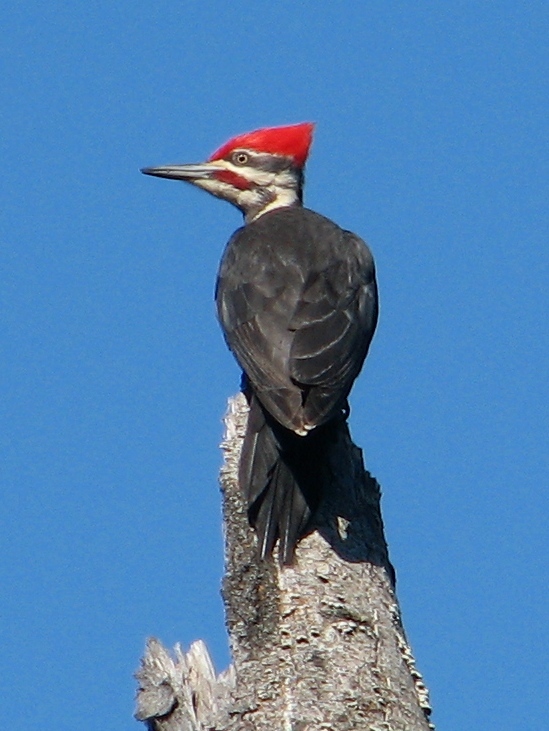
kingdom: Animalia
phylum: Chordata
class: Aves
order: Piciformes
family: Picidae
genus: Dryocopus
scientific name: Dryocopus pileatus
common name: Pileated woodpecker
